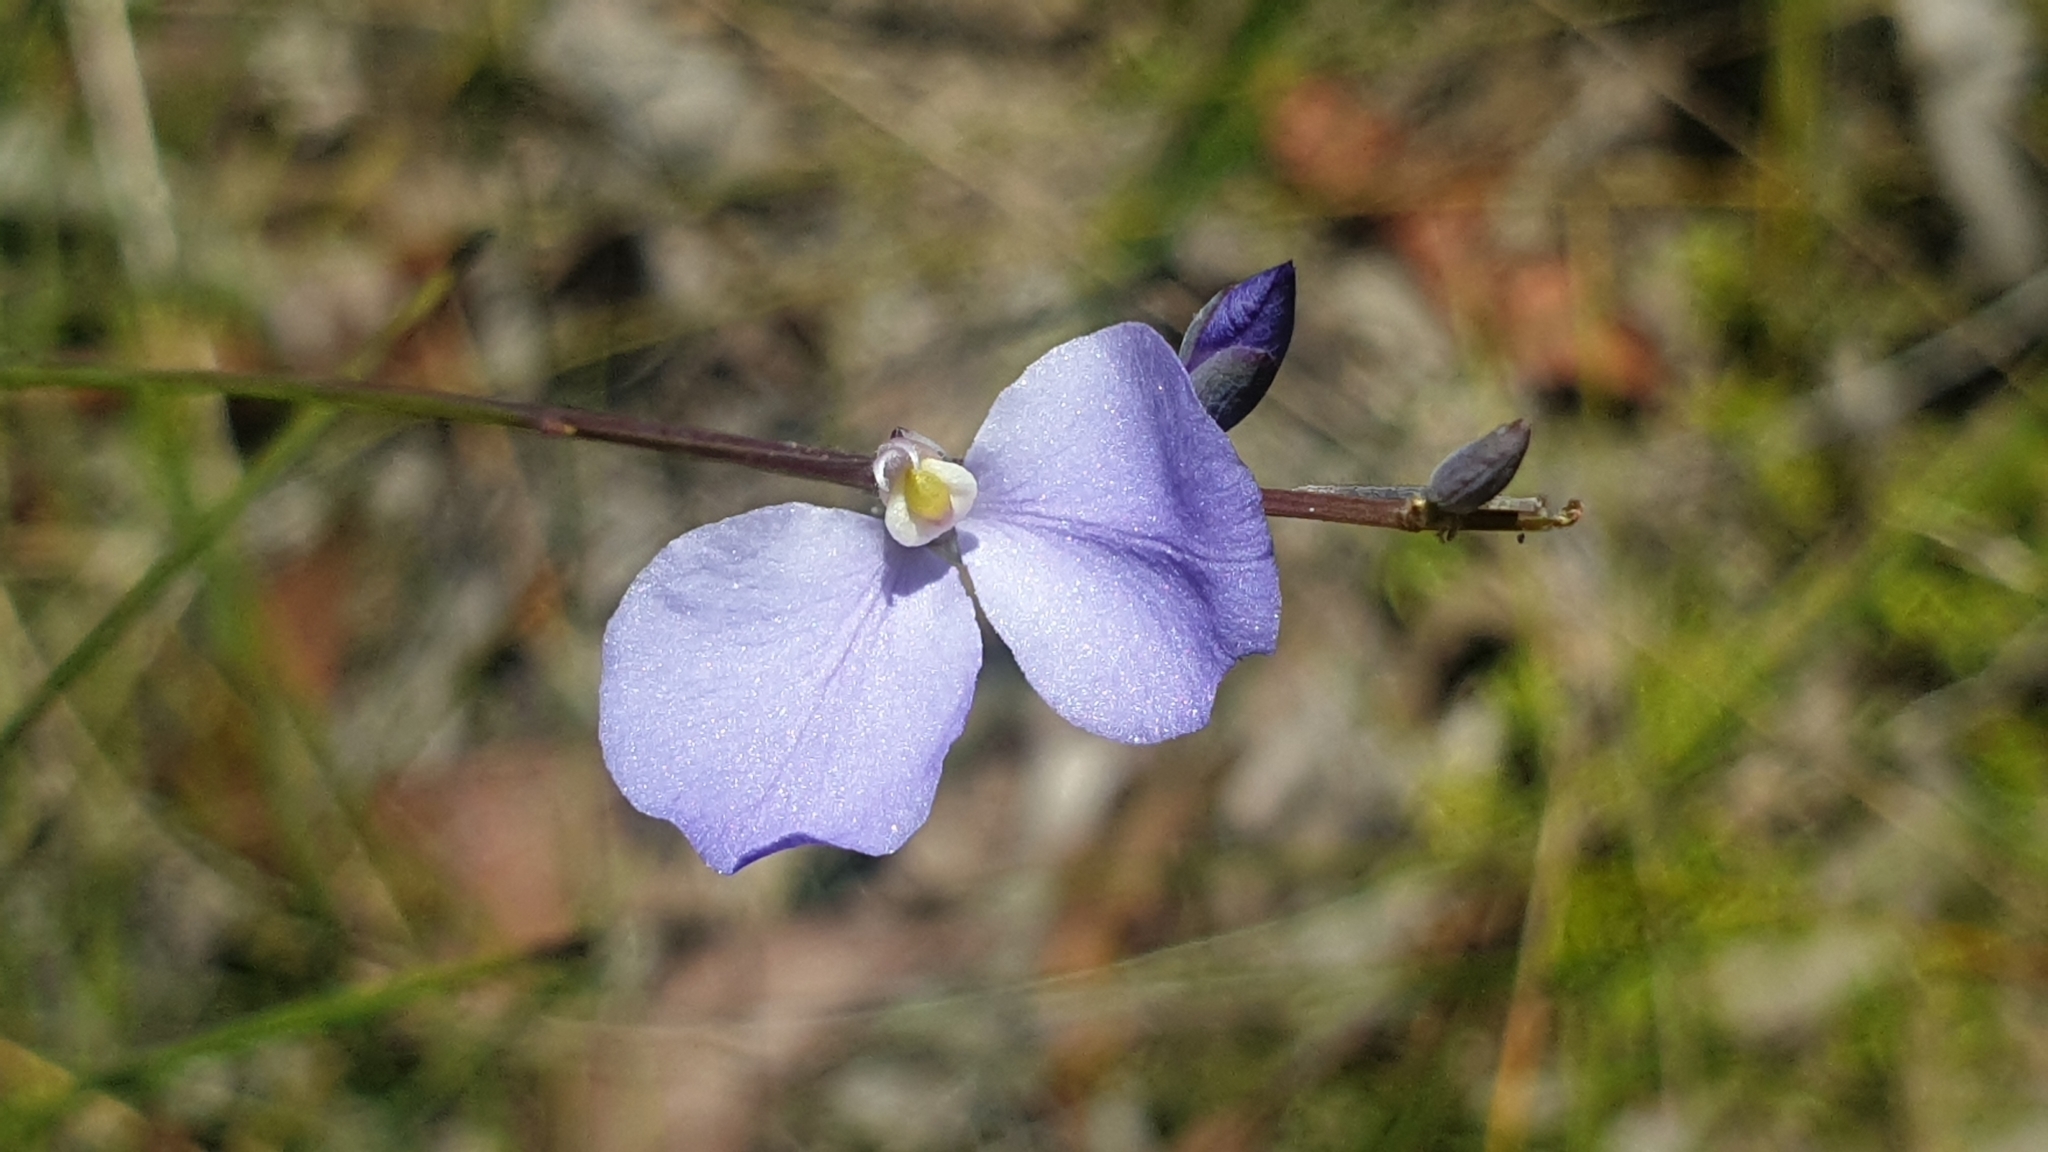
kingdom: Plantae
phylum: Tracheophyta
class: Magnoliopsida
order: Fabales
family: Polygalaceae
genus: Comesperma
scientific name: Comesperma sphaerocarpum
